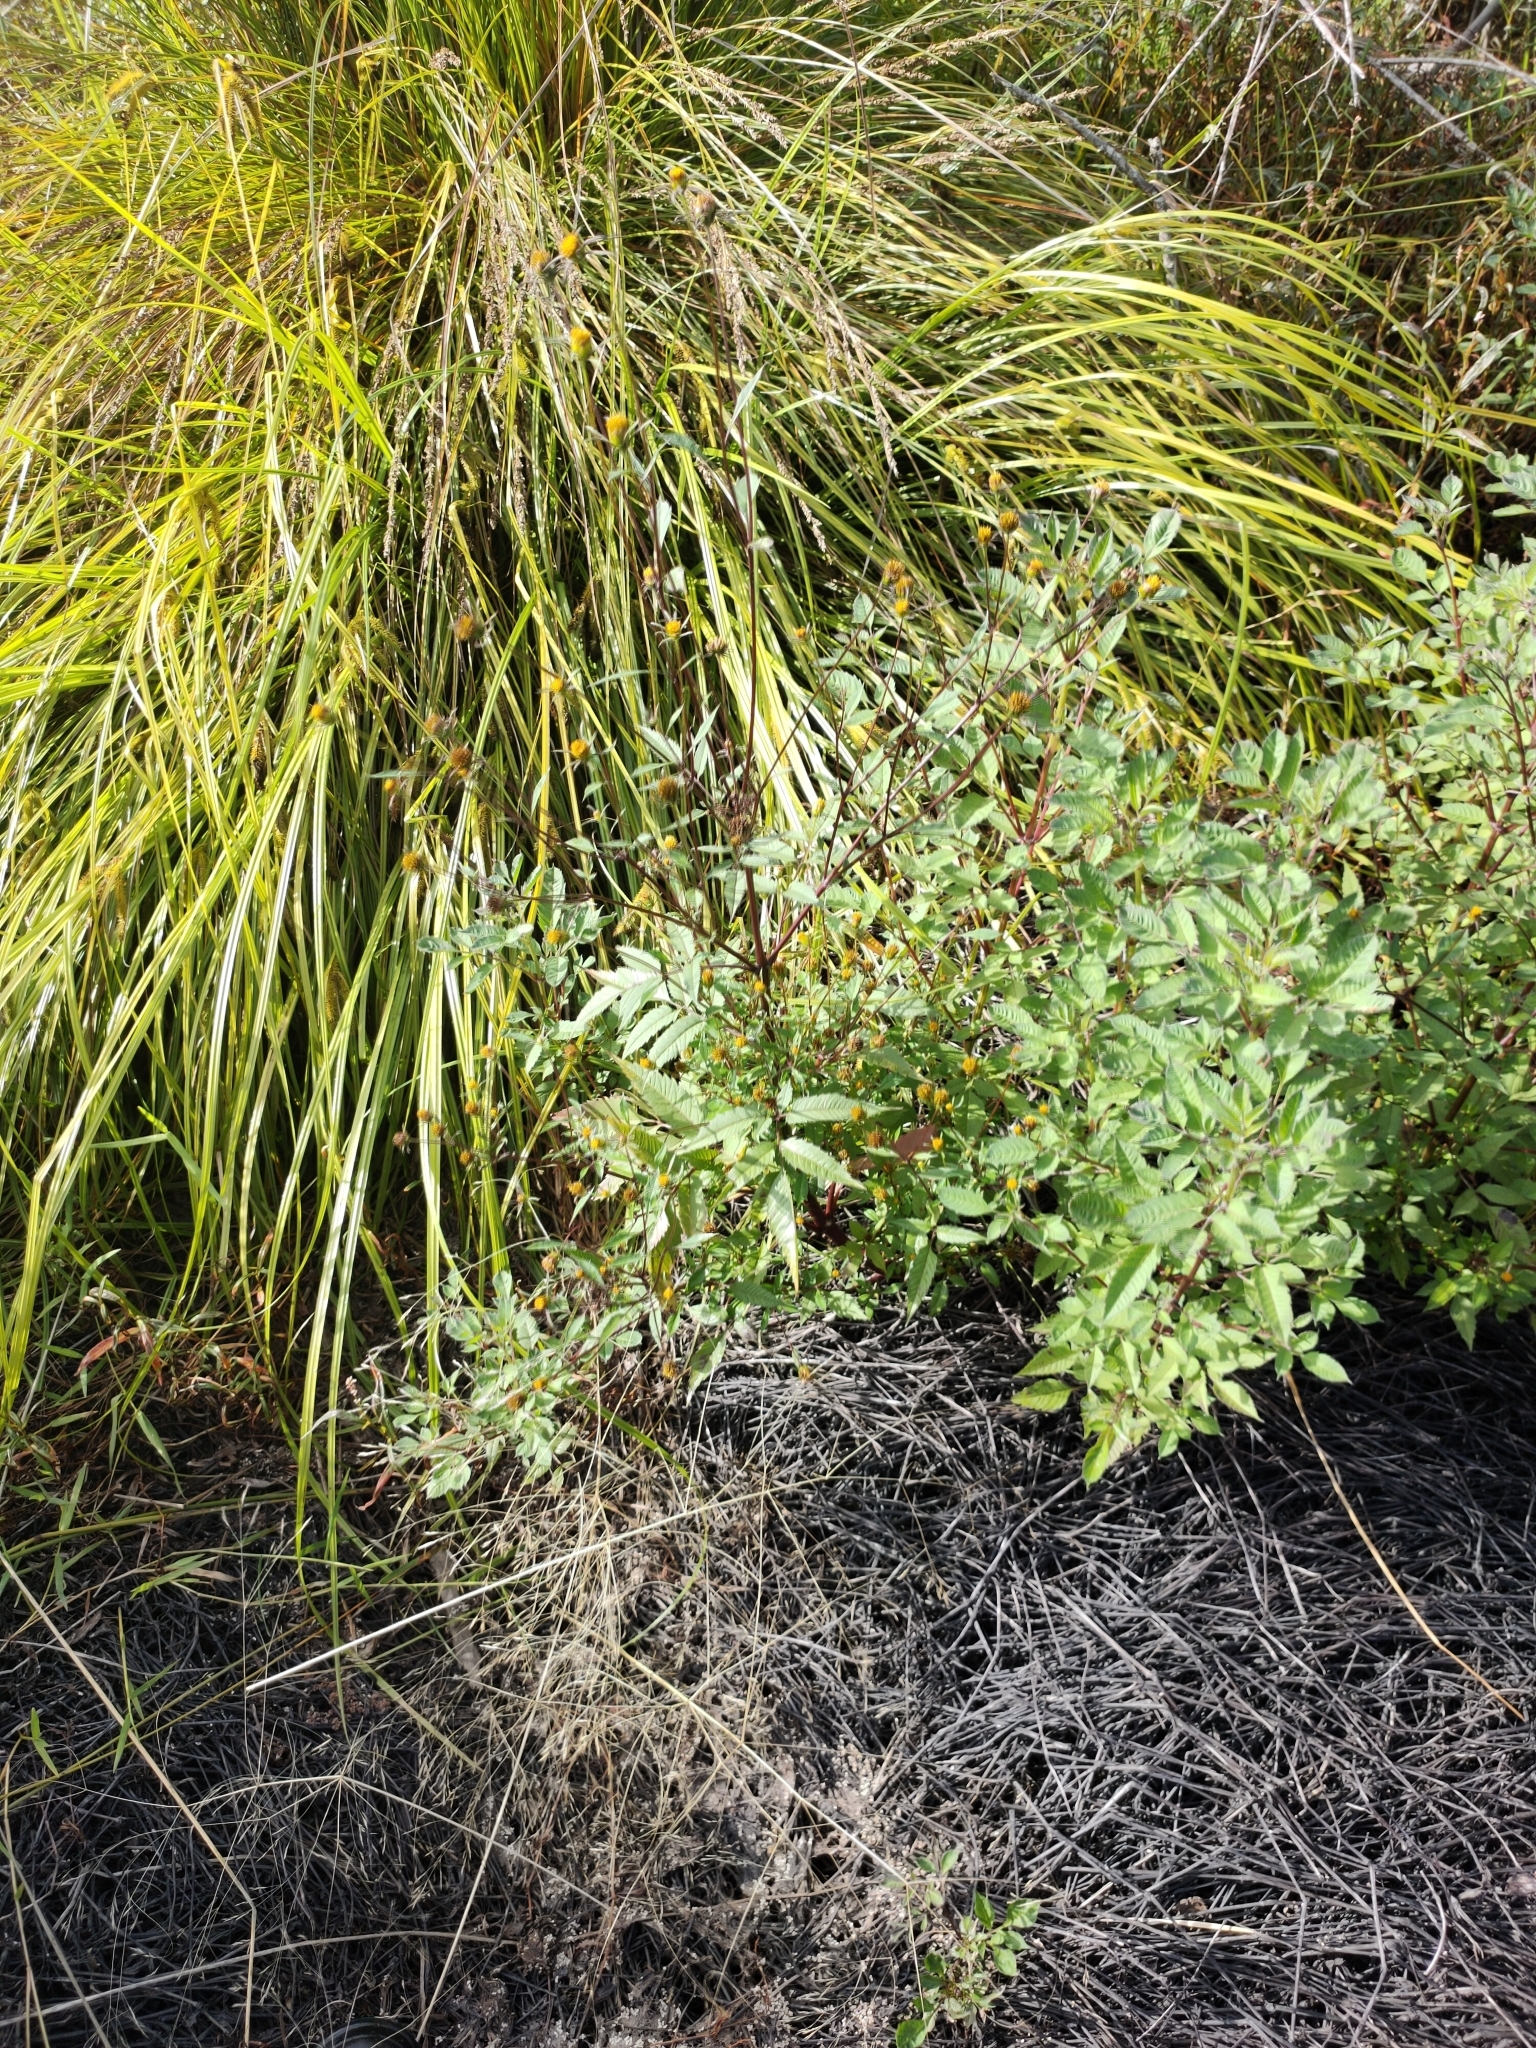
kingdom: Plantae
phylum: Tracheophyta
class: Magnoliopsida
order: Asterales
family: Asteraceae
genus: Bidens
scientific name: Bidens frondosa
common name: Beggarticks
